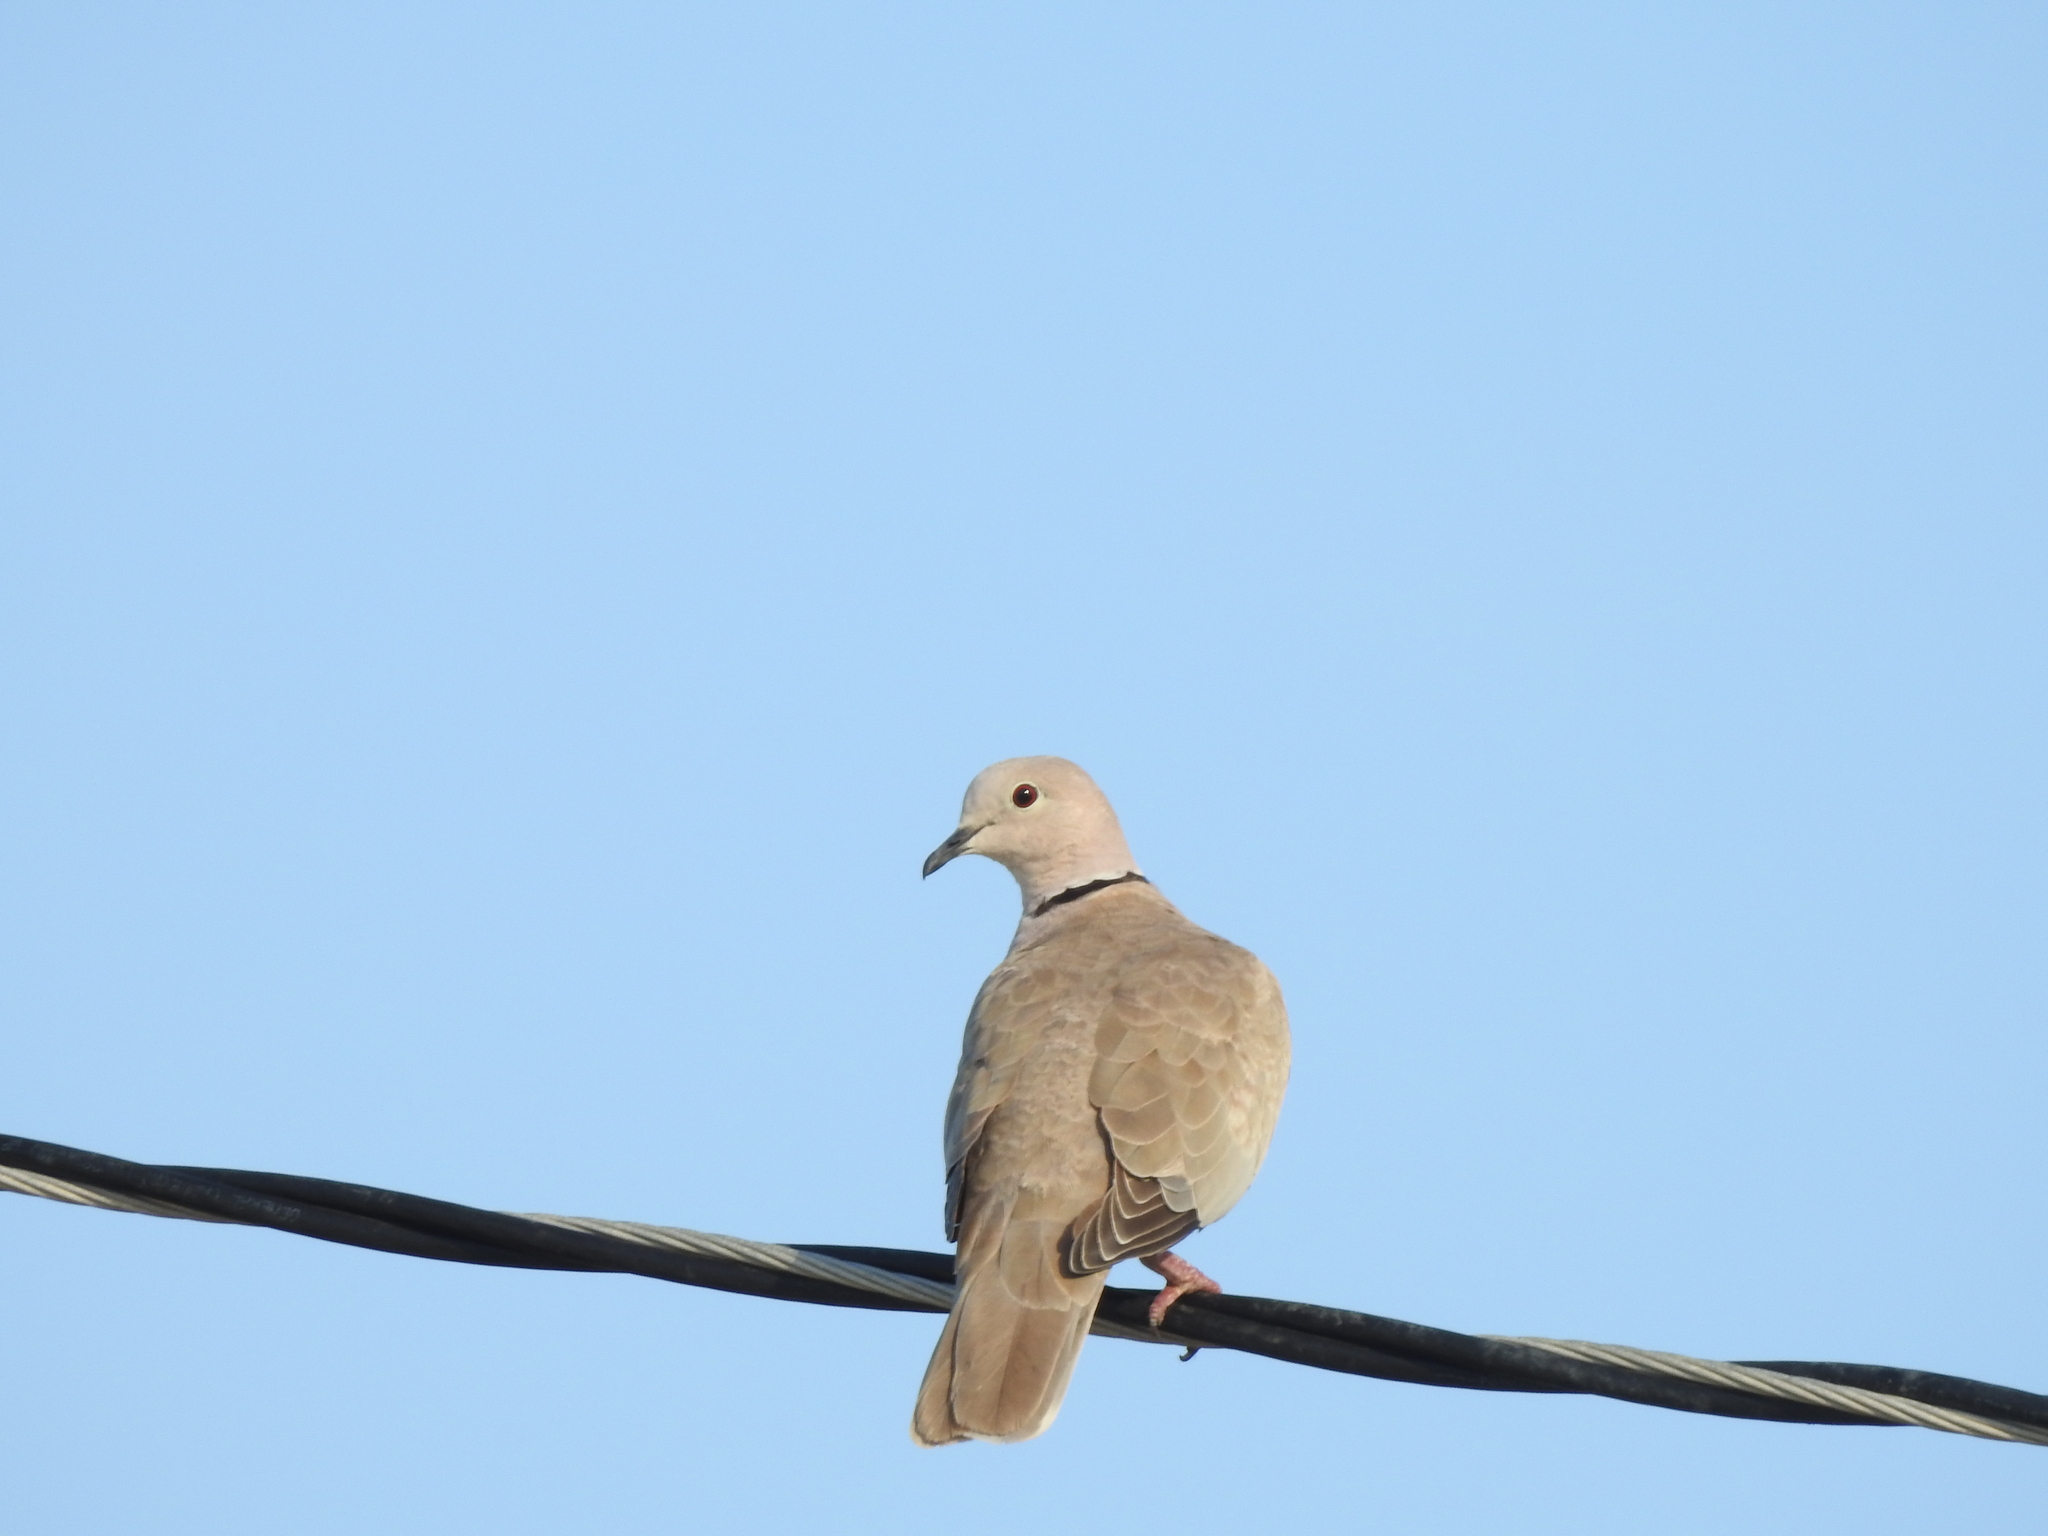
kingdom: Animalia
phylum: Chordata
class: Aves
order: Columbiformes
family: Columbidae
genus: Streptopelia
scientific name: Streptopelia decaocto
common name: Eurasian collared dove
